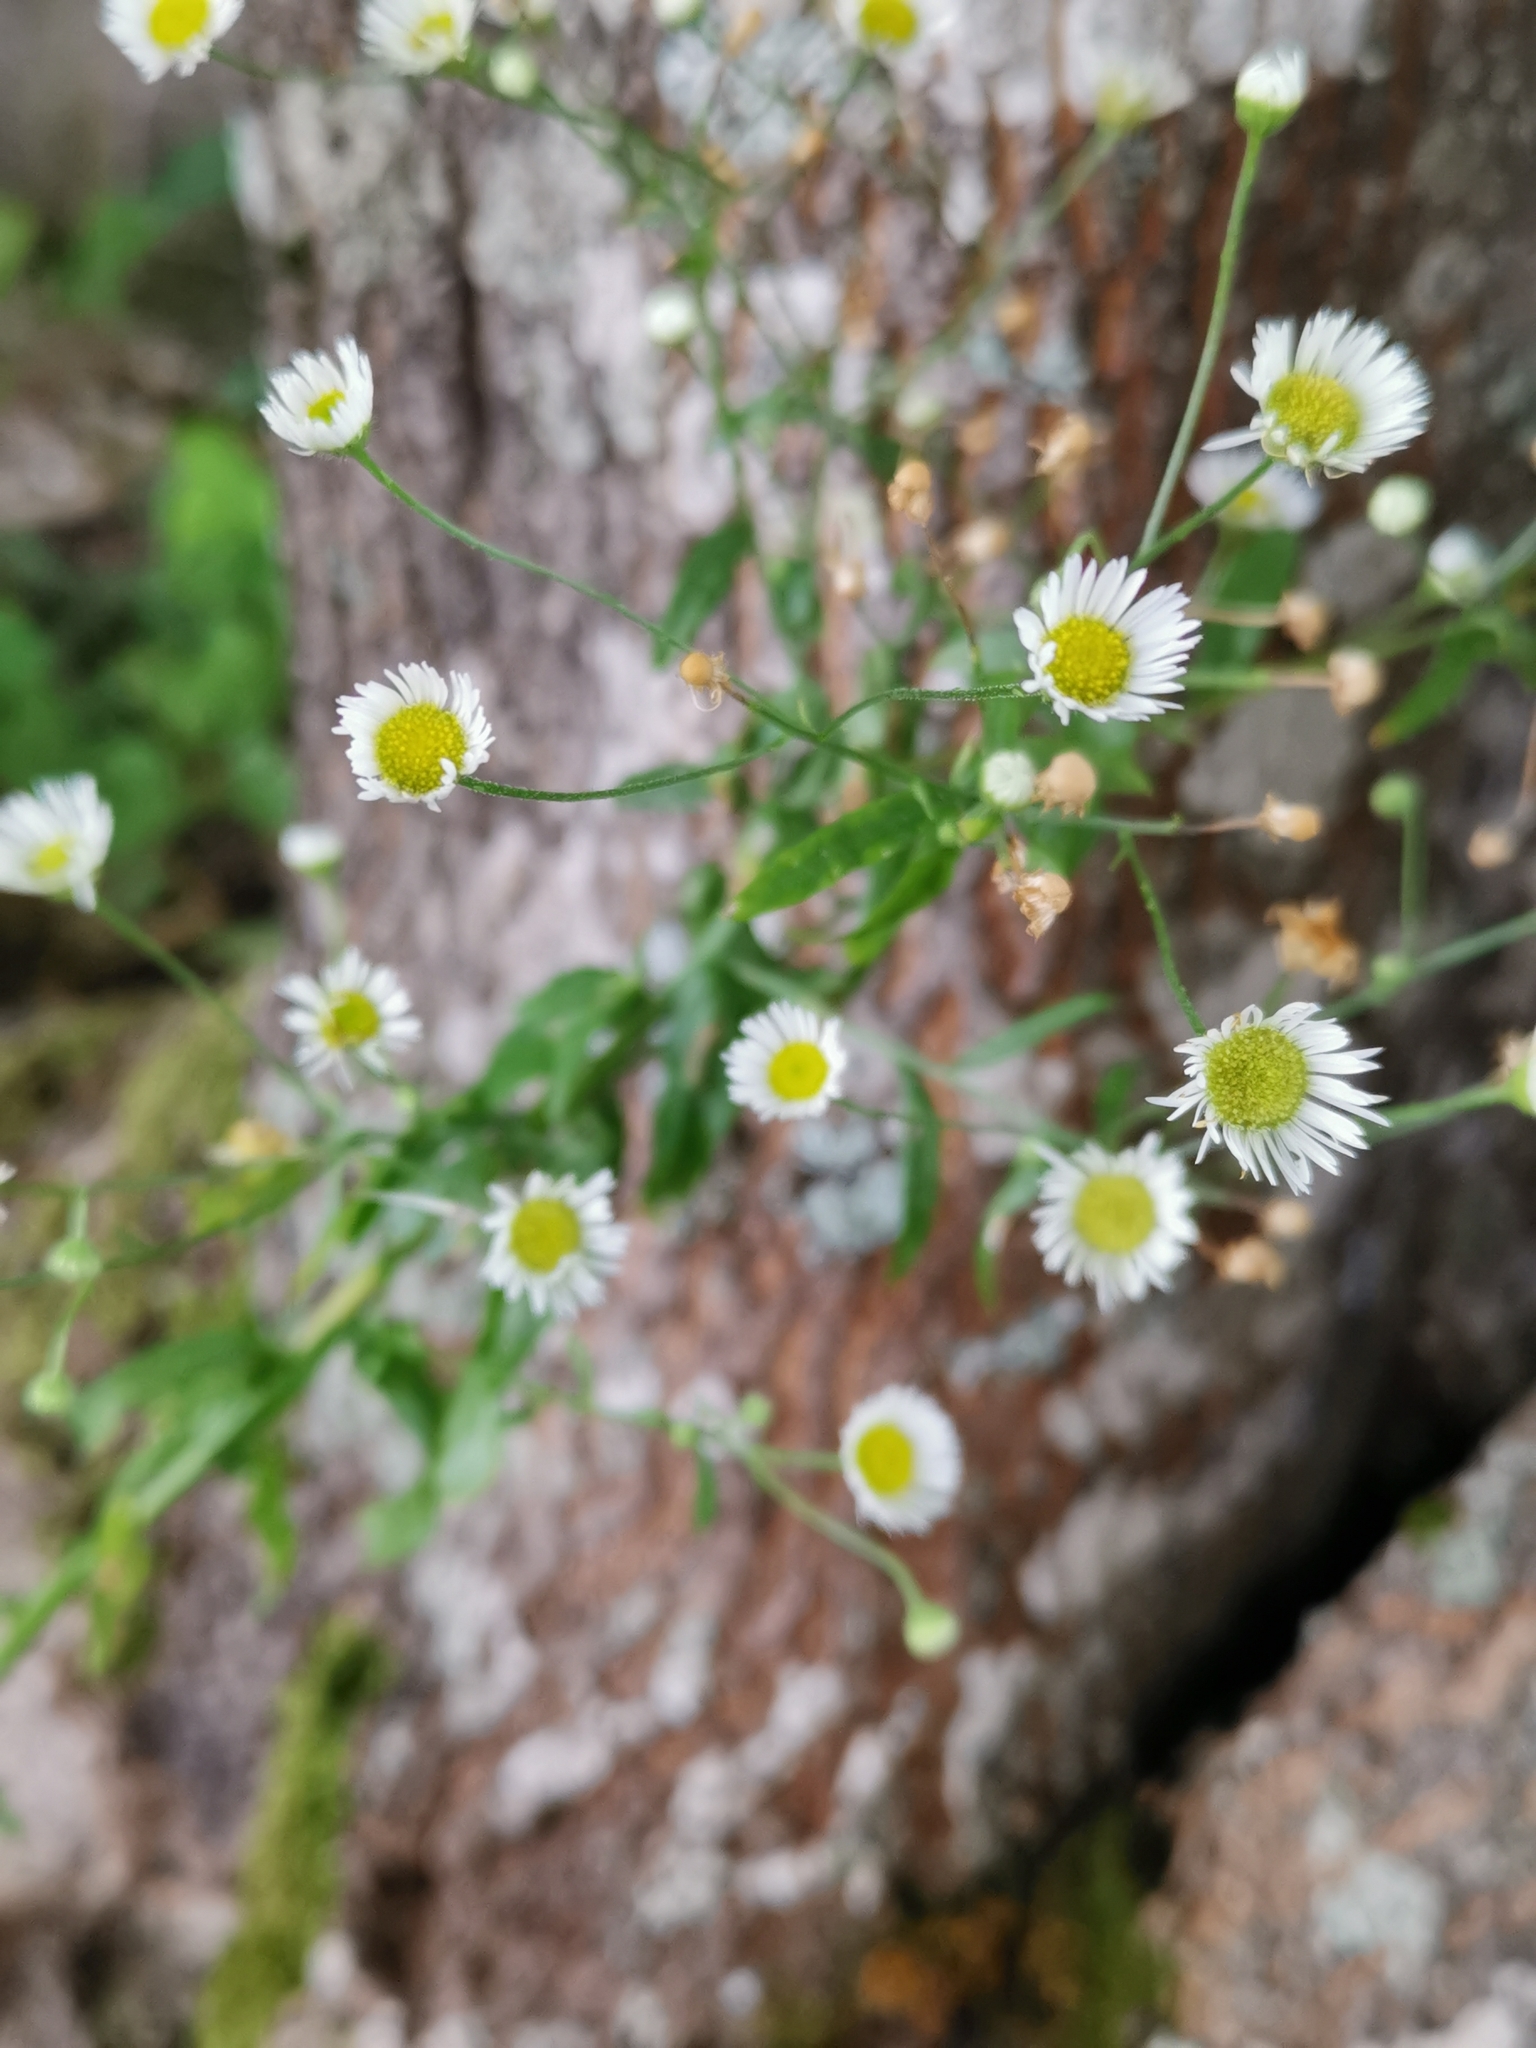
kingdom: Plantae
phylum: Tracheophyta
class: Magnoliopsida
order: Asterales
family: Asteraceae
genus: Erigeron
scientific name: Erigeron strigosus
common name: Common eastern fleabane
